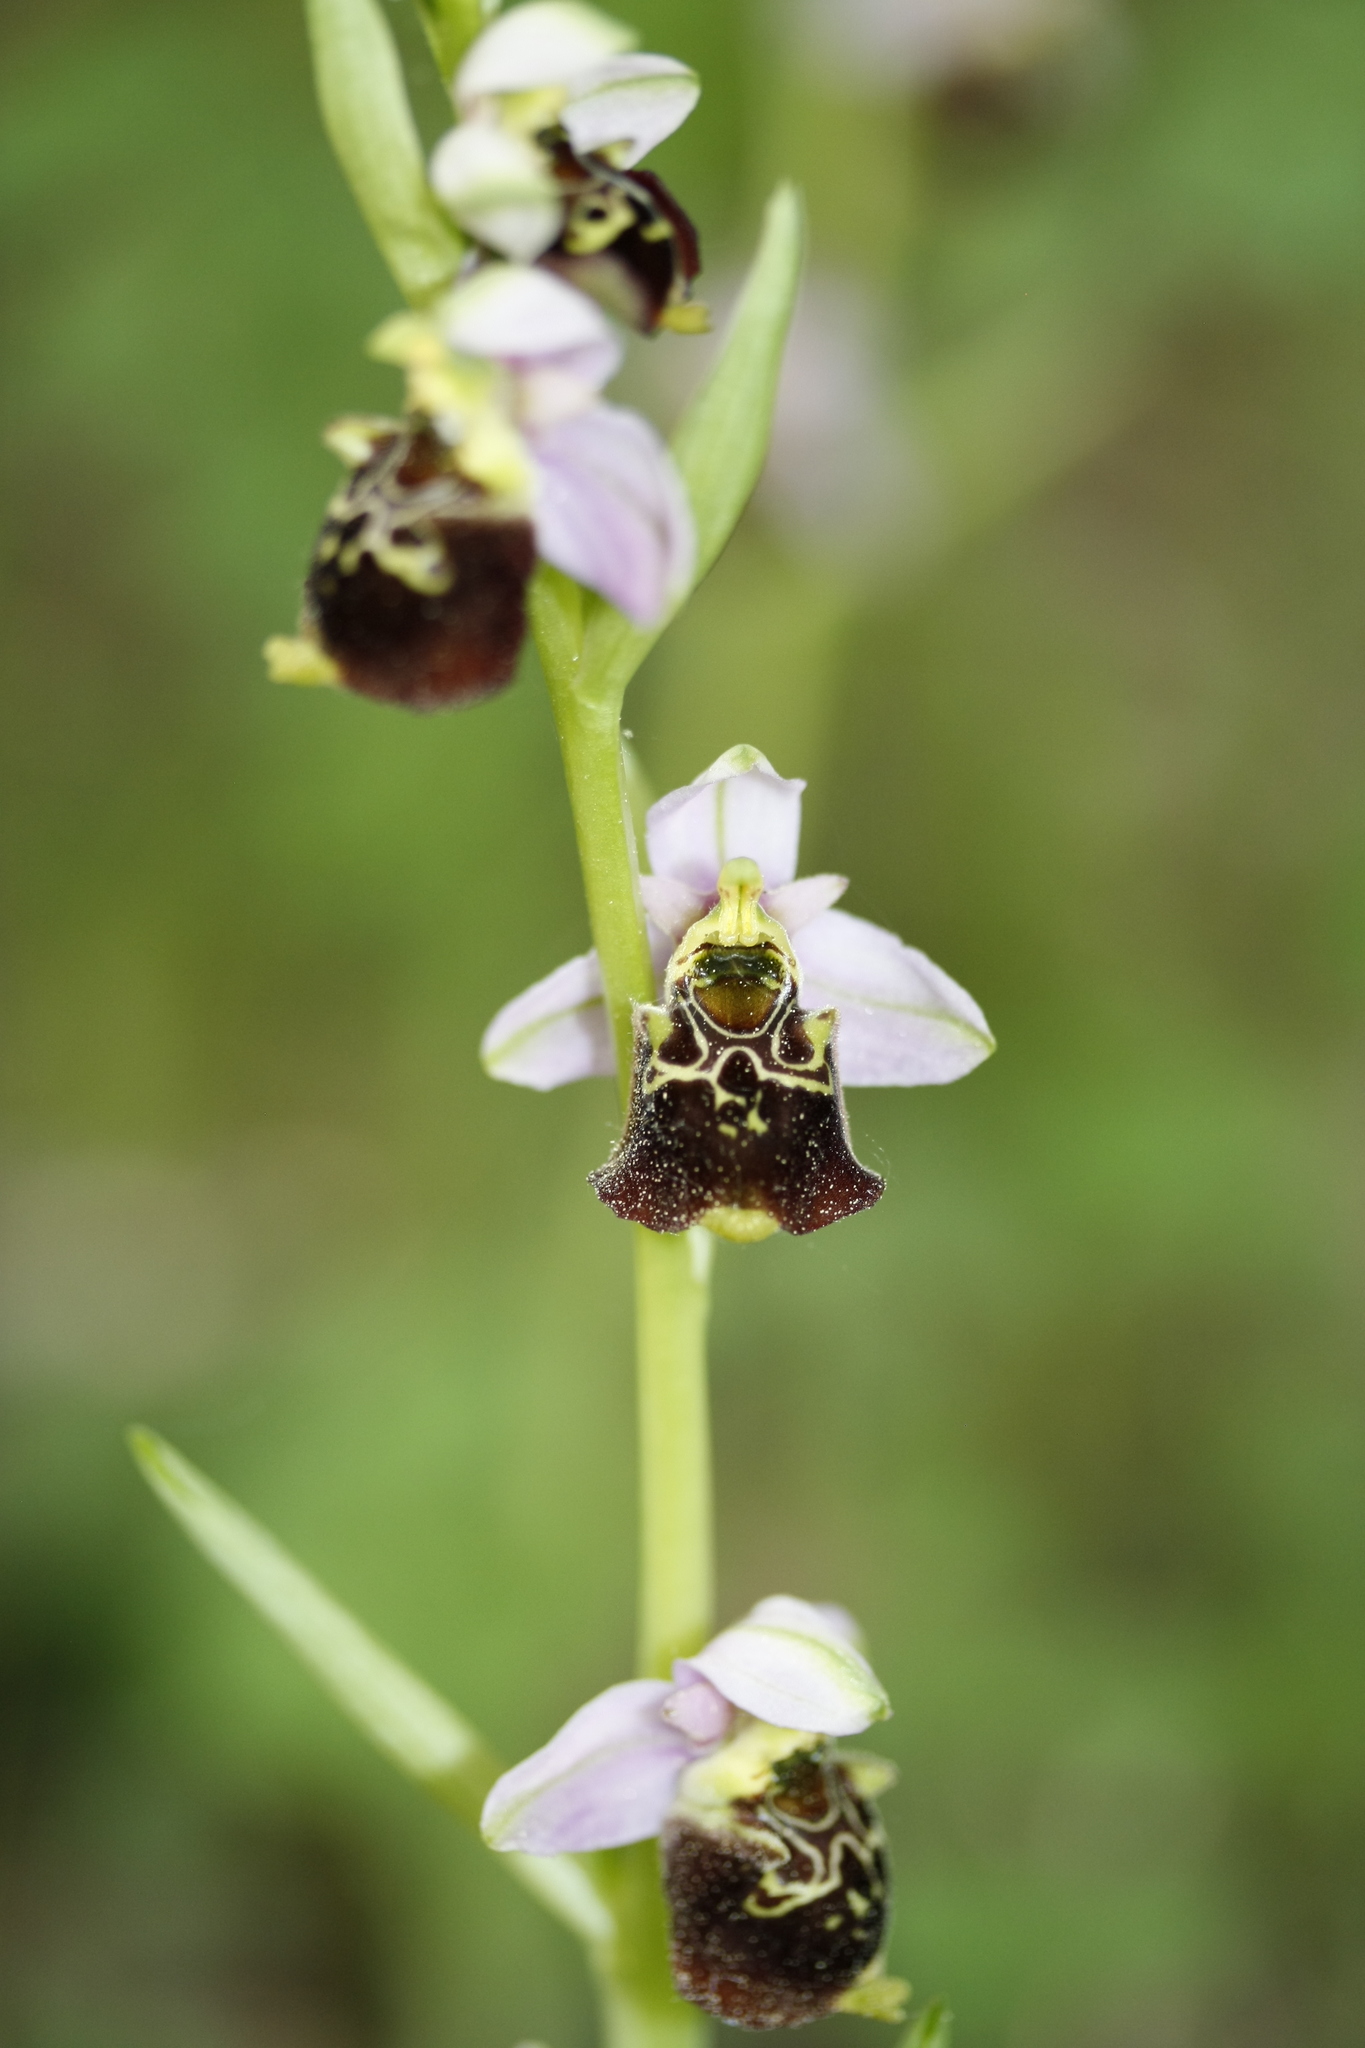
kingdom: Plantae
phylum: Tracheophyta
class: Liliopsida
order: Asparagales
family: Orchidaceae
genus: Ophrys
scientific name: Ophrys holosericea
